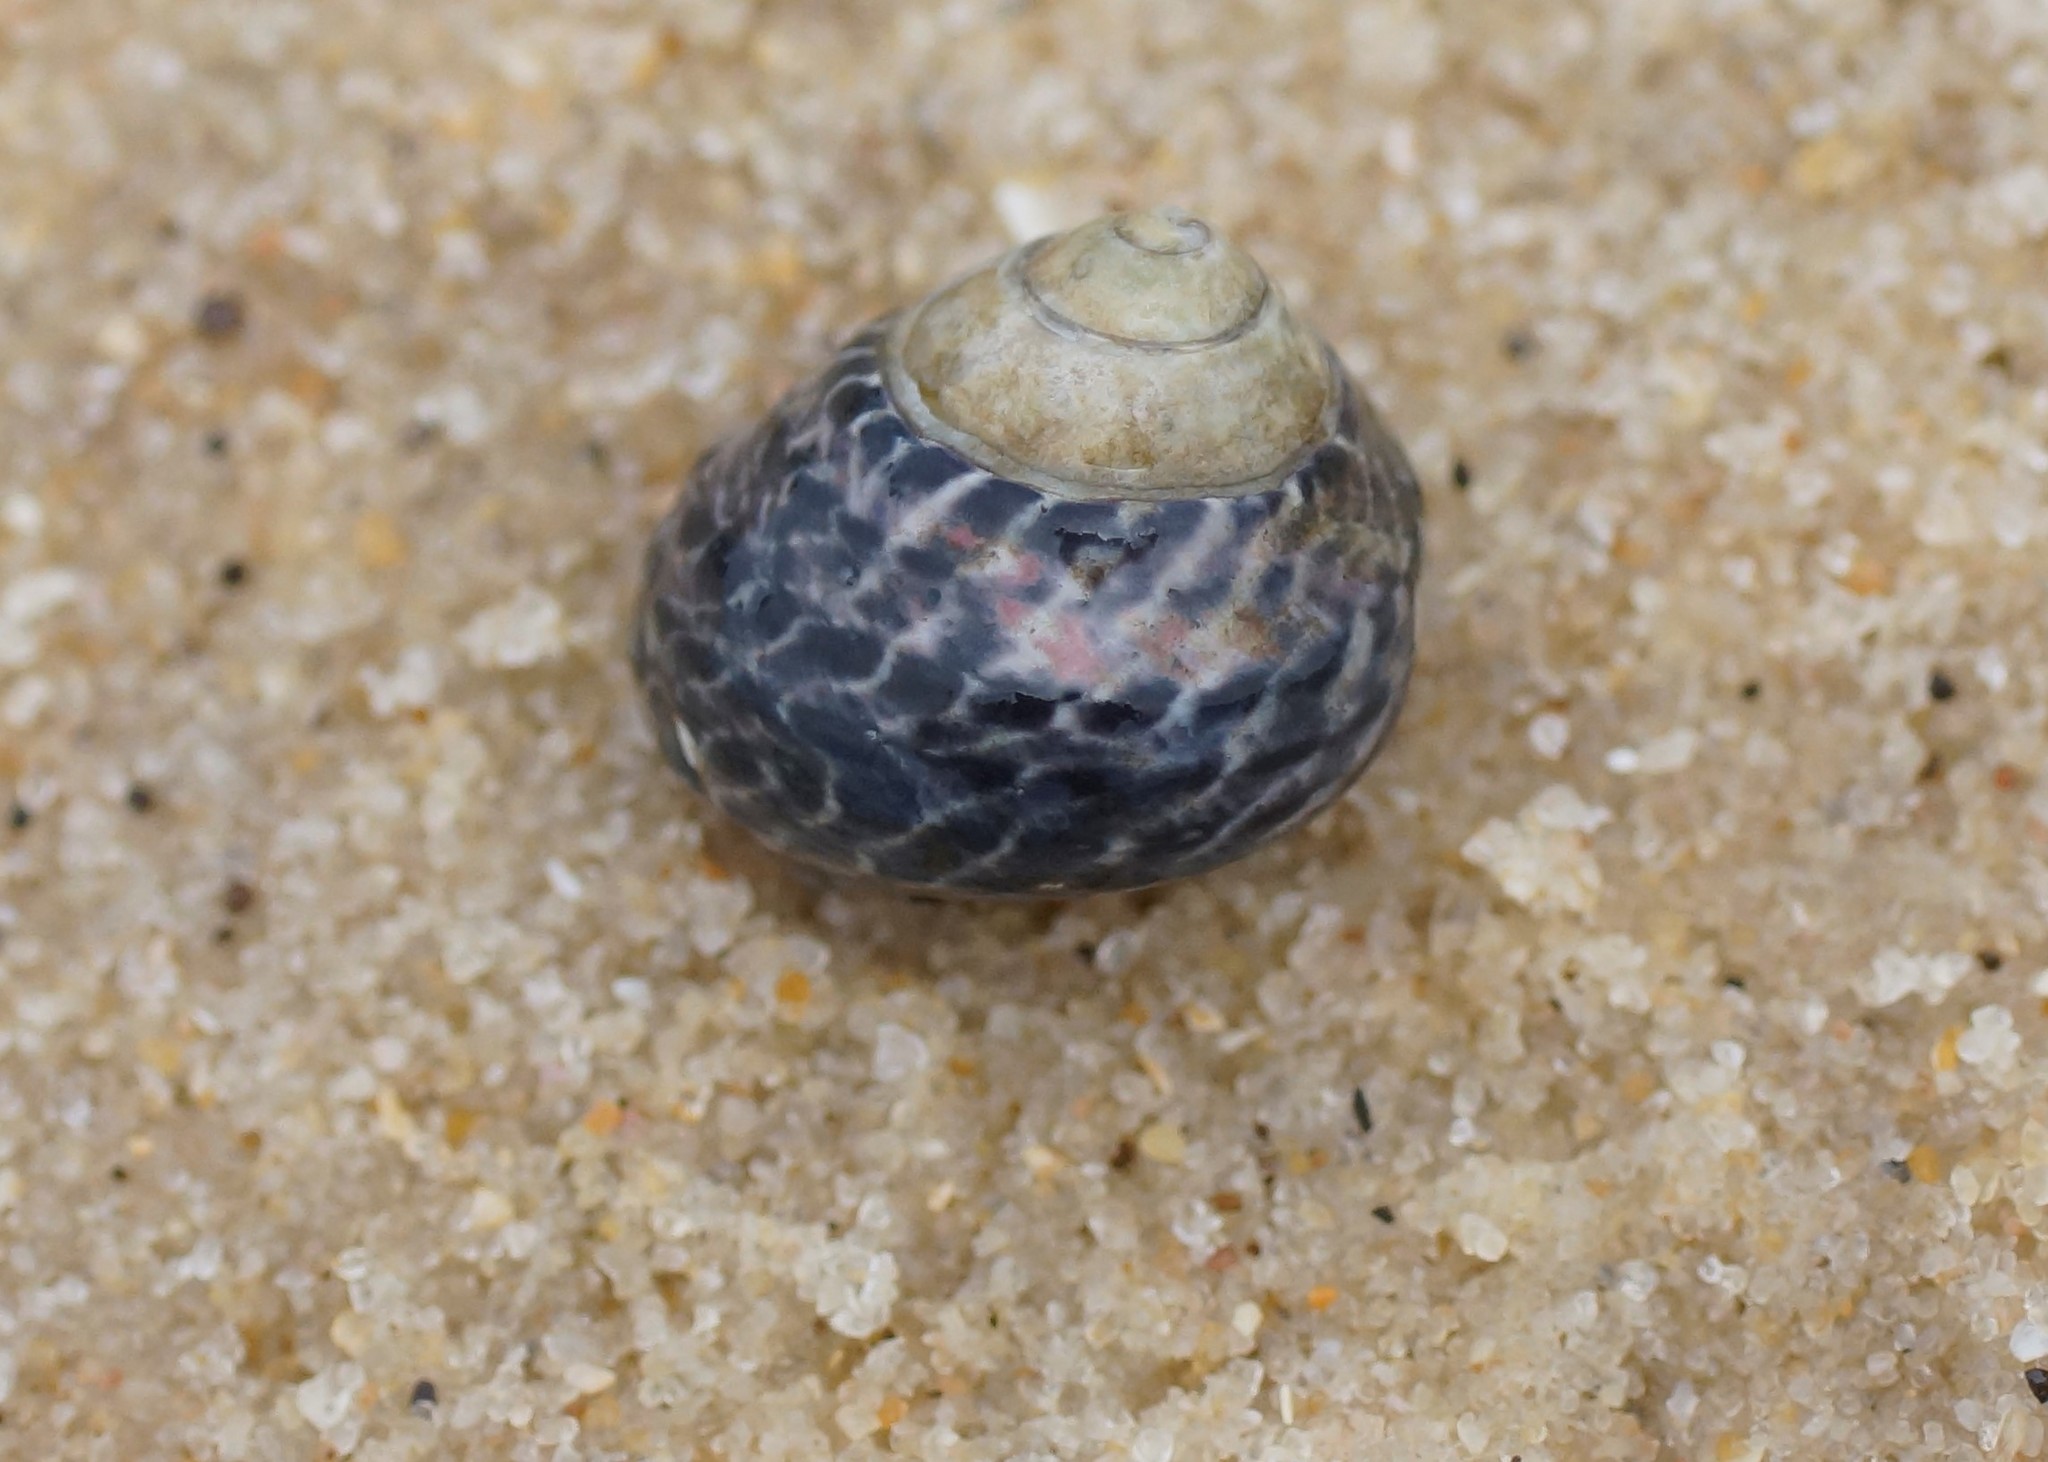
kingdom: Animalia
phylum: Mollusca
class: Gastropoda
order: Trochida
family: Trochidae
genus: Austrocochlea
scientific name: Austrocochlea porcata
